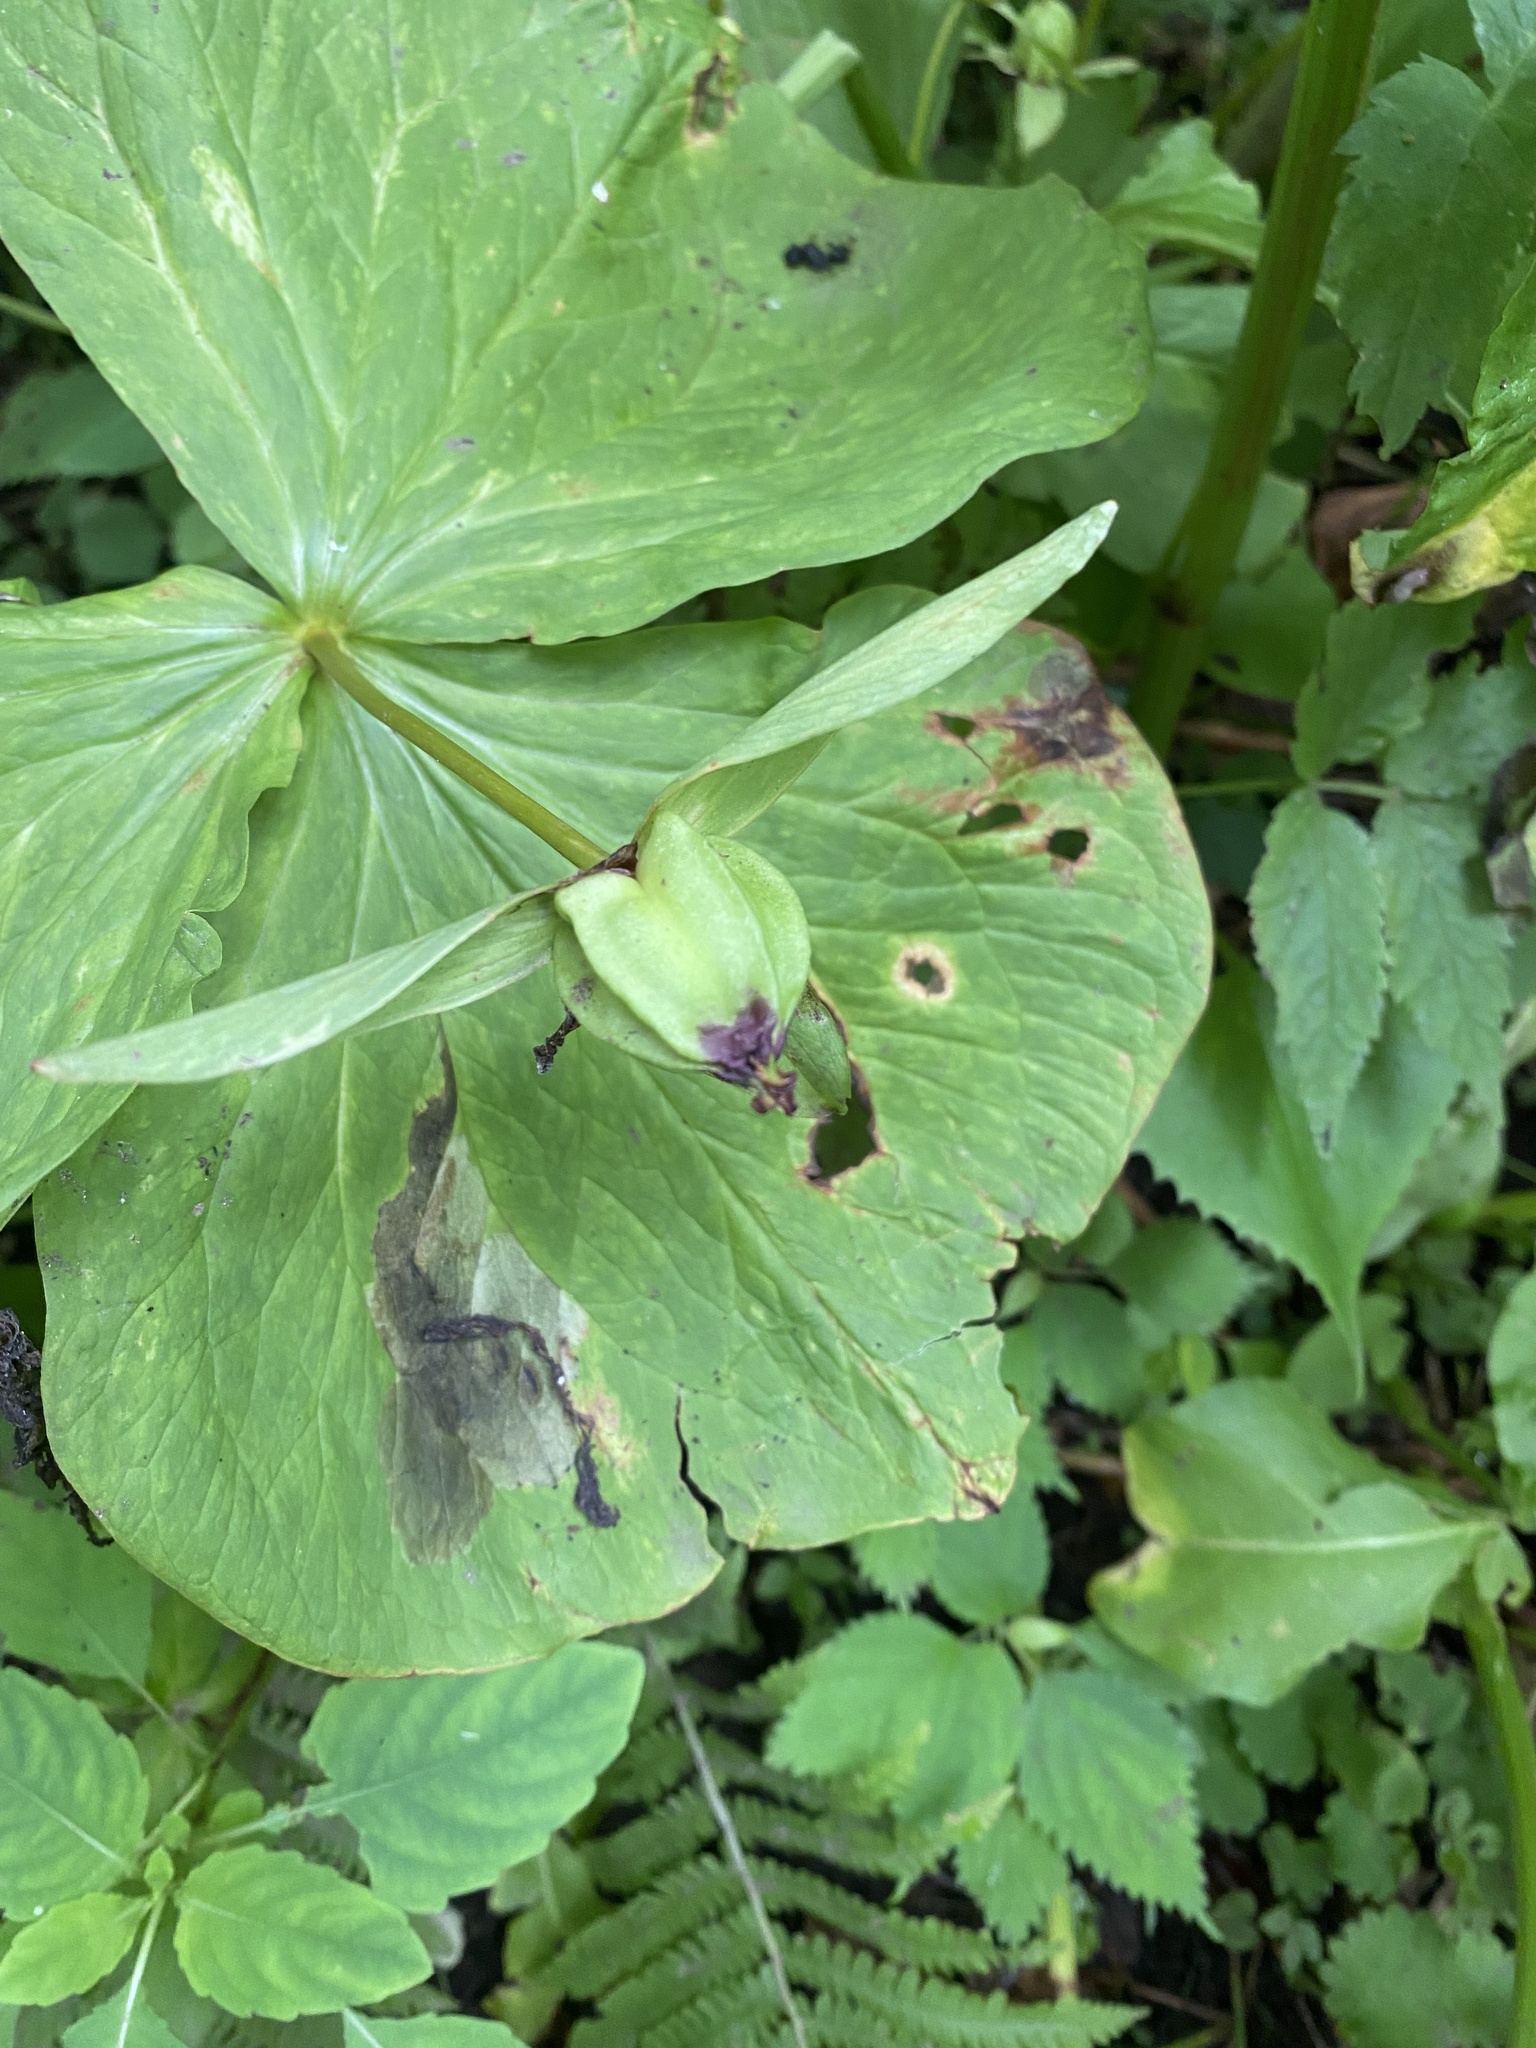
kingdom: Plantae
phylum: Tracheophyta
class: Liliopsida
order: Liliales
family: Melanthiaceae
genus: Trillium
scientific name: Trillium camschatcense
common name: Kamchatka trillium
